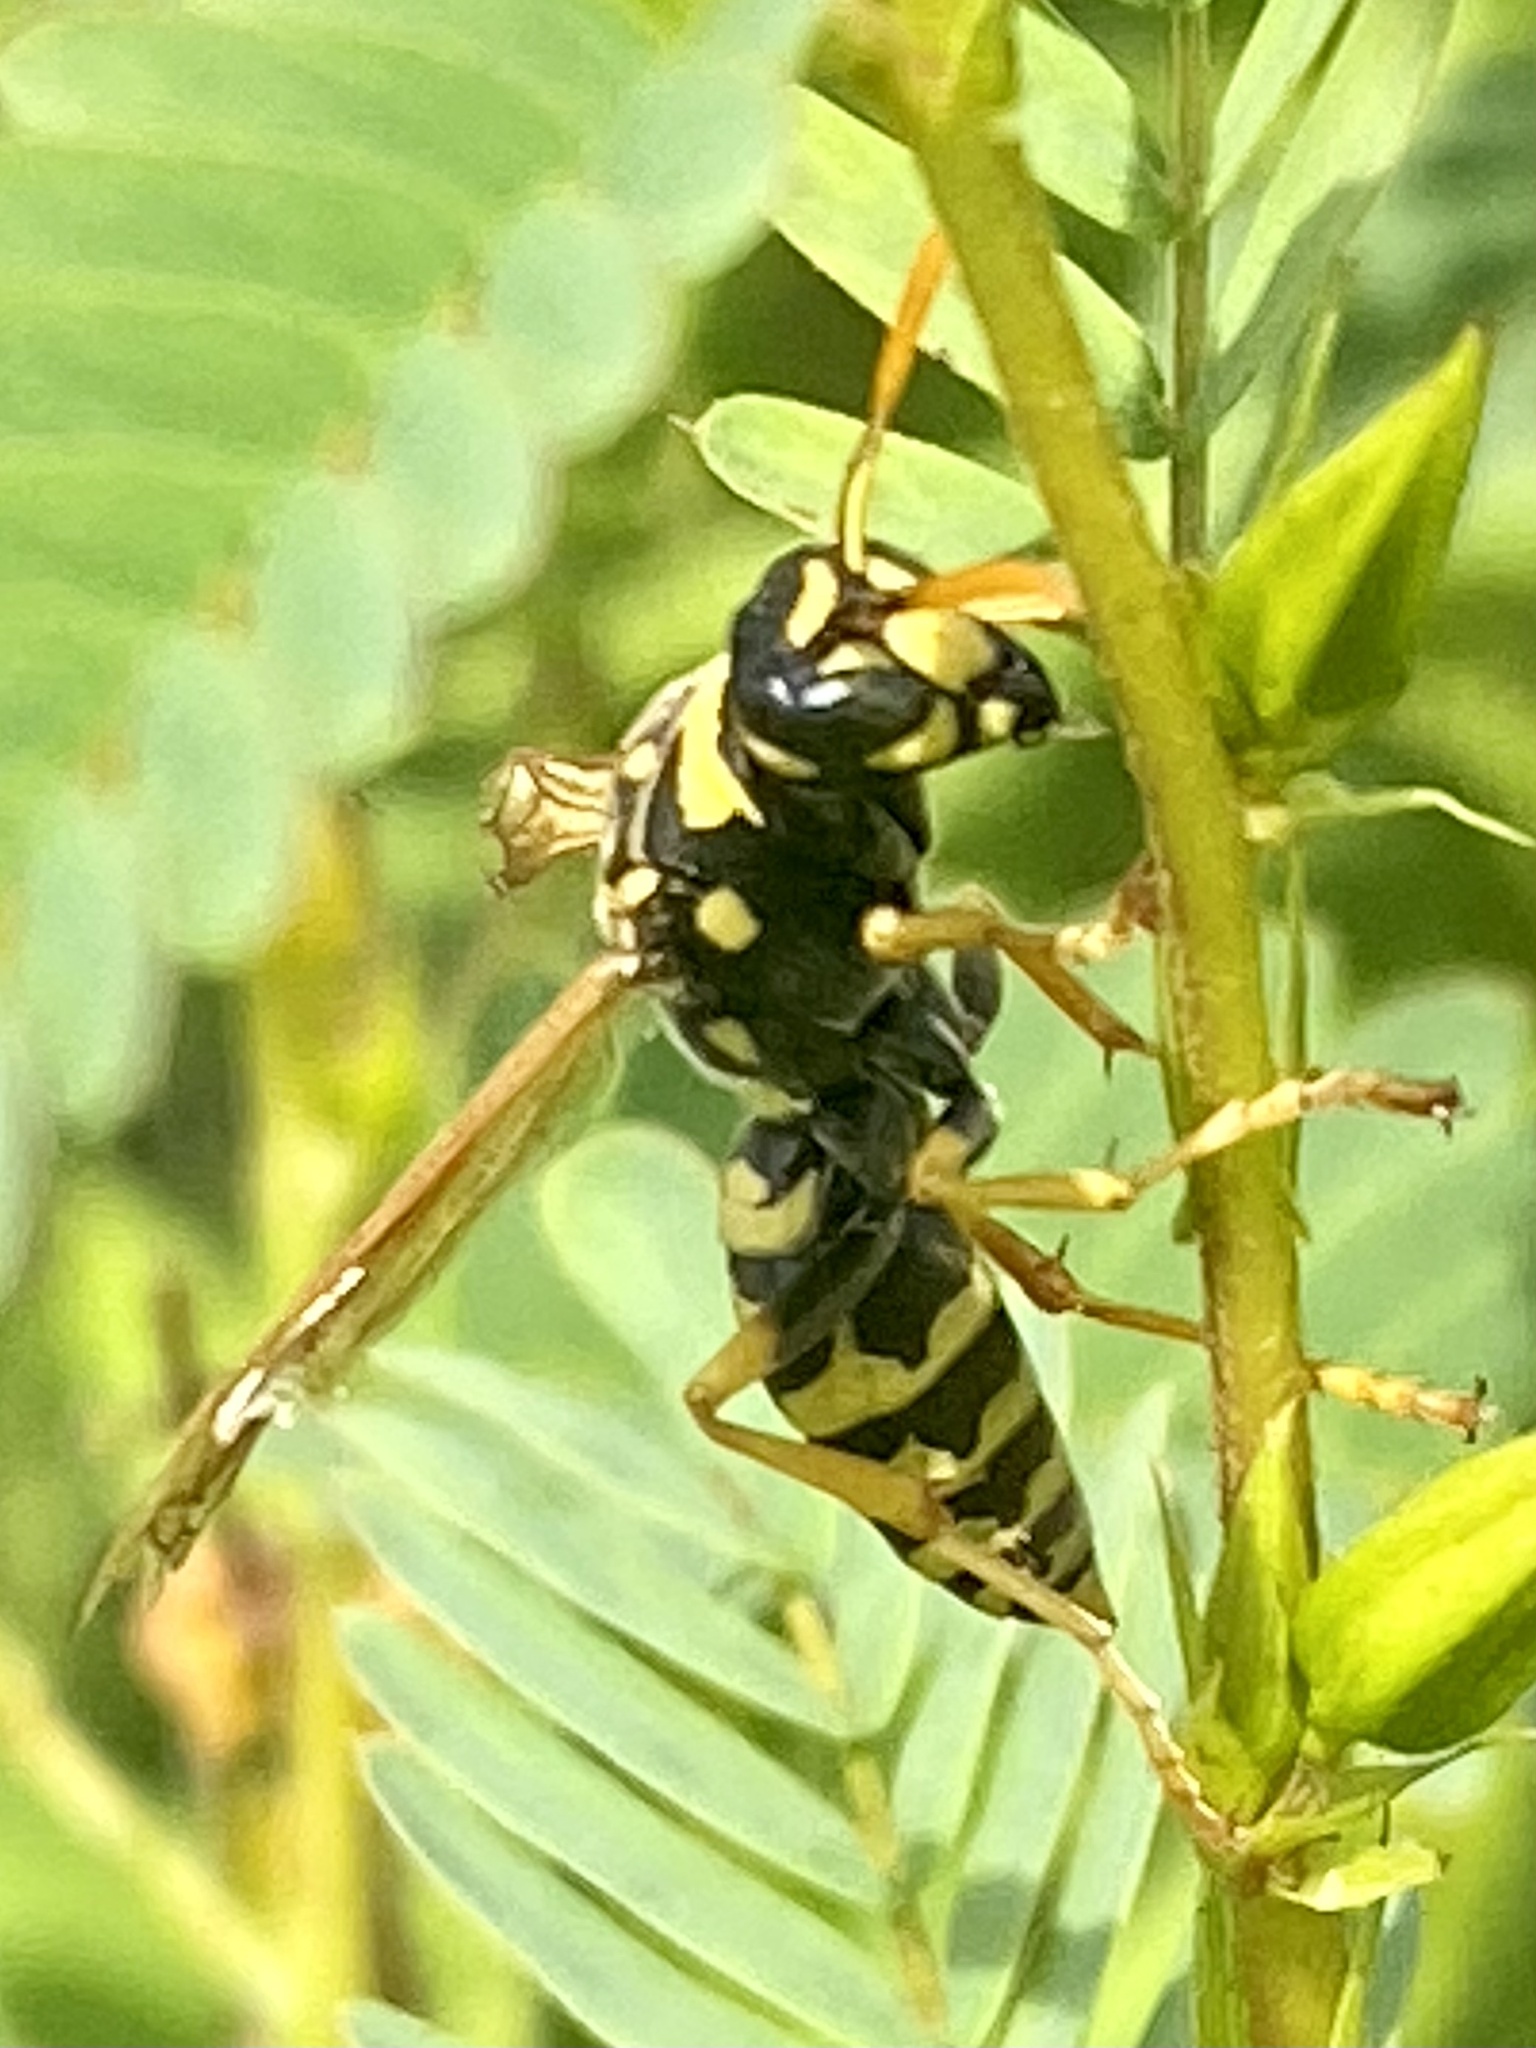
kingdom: Animalia
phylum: Arthropoda
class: Insecta
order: Hymenoptera
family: Eumenidae
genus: Polistes
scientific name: Polistes dominula
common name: Paper wasp
